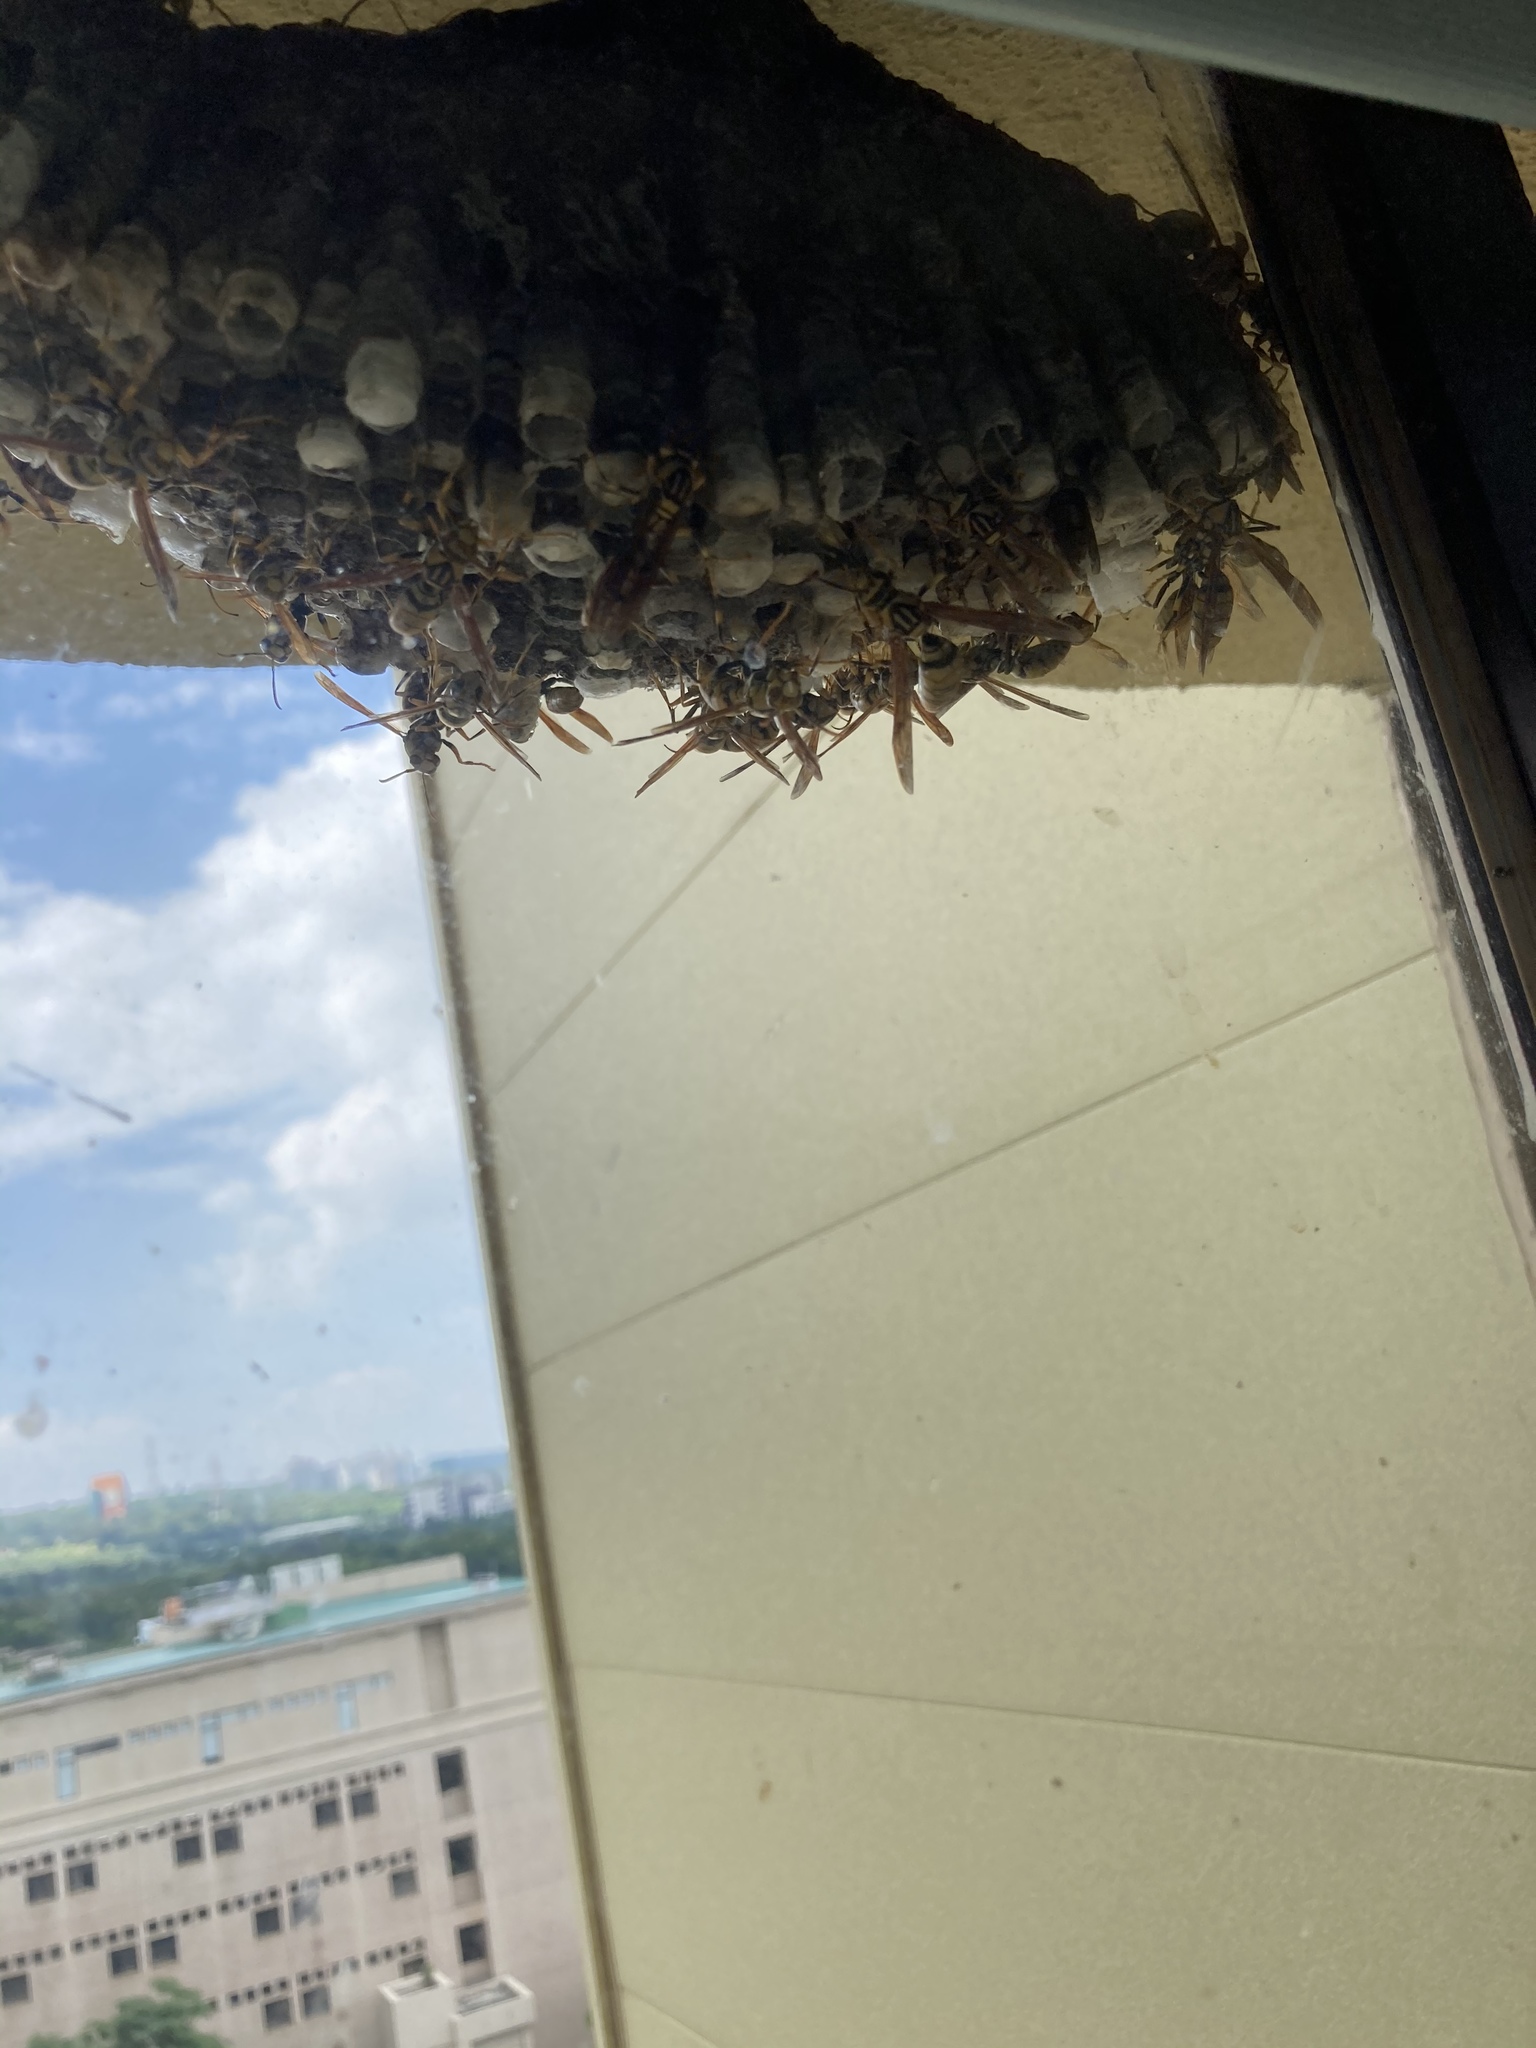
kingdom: Animalia
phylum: Arthropoda
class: Insecta
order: Hymenoptera
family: Eumenidae
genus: Polistes
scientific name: Polistes rothneyi
